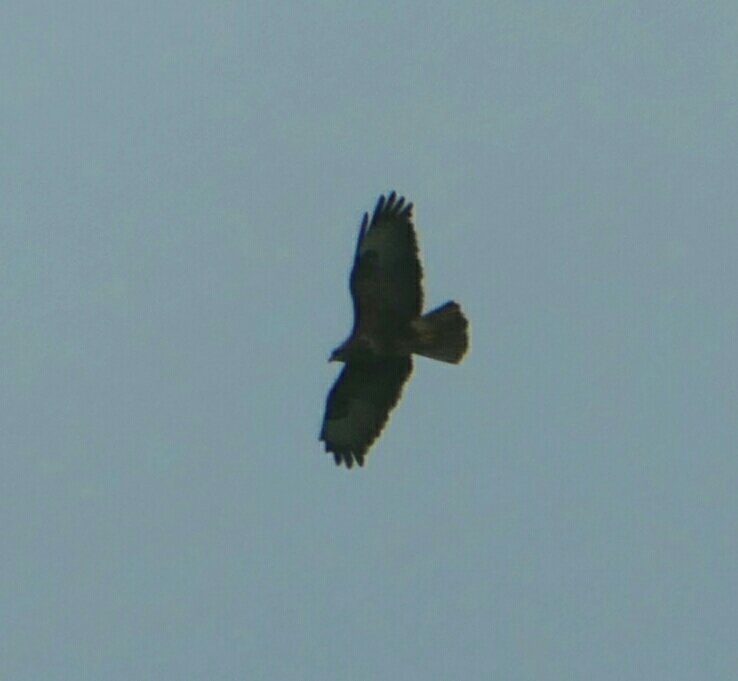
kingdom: Animalia
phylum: Chordata
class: Aves
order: Accipitriformes
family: Accipitridae
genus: Buteo
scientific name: Buteo buteo
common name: Common buzzard
